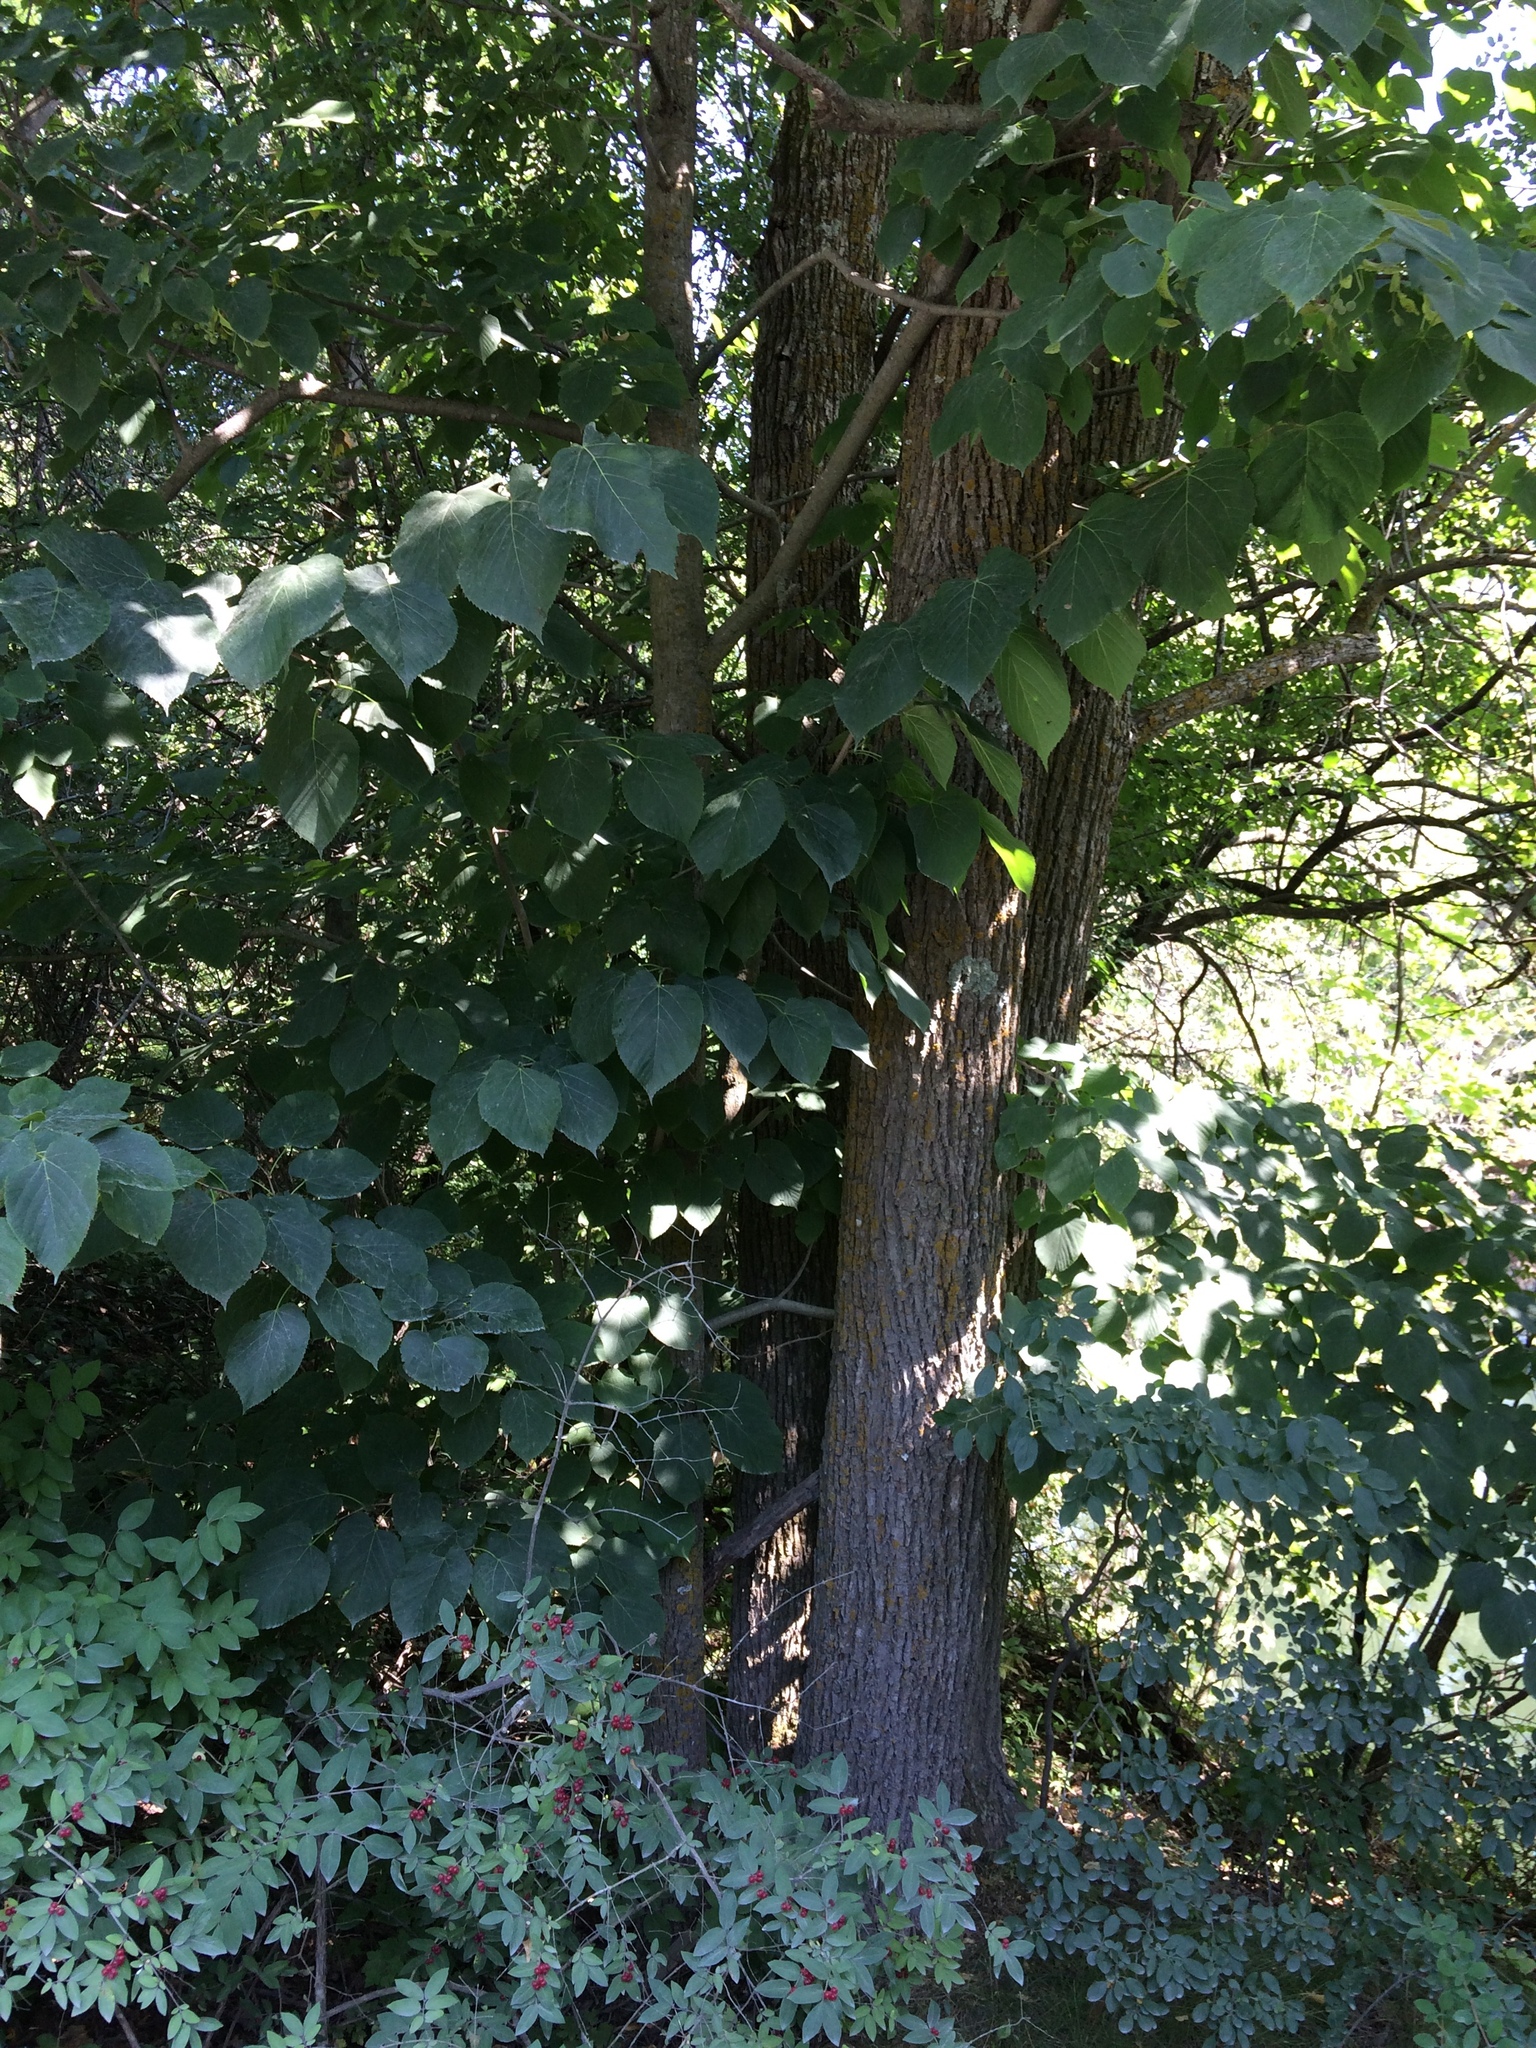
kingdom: Plantae
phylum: Tracheophyta
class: Magnoliopsida
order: Malvales
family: Malvaceae
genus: Tilia
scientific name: Tilia americana
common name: Basswood
